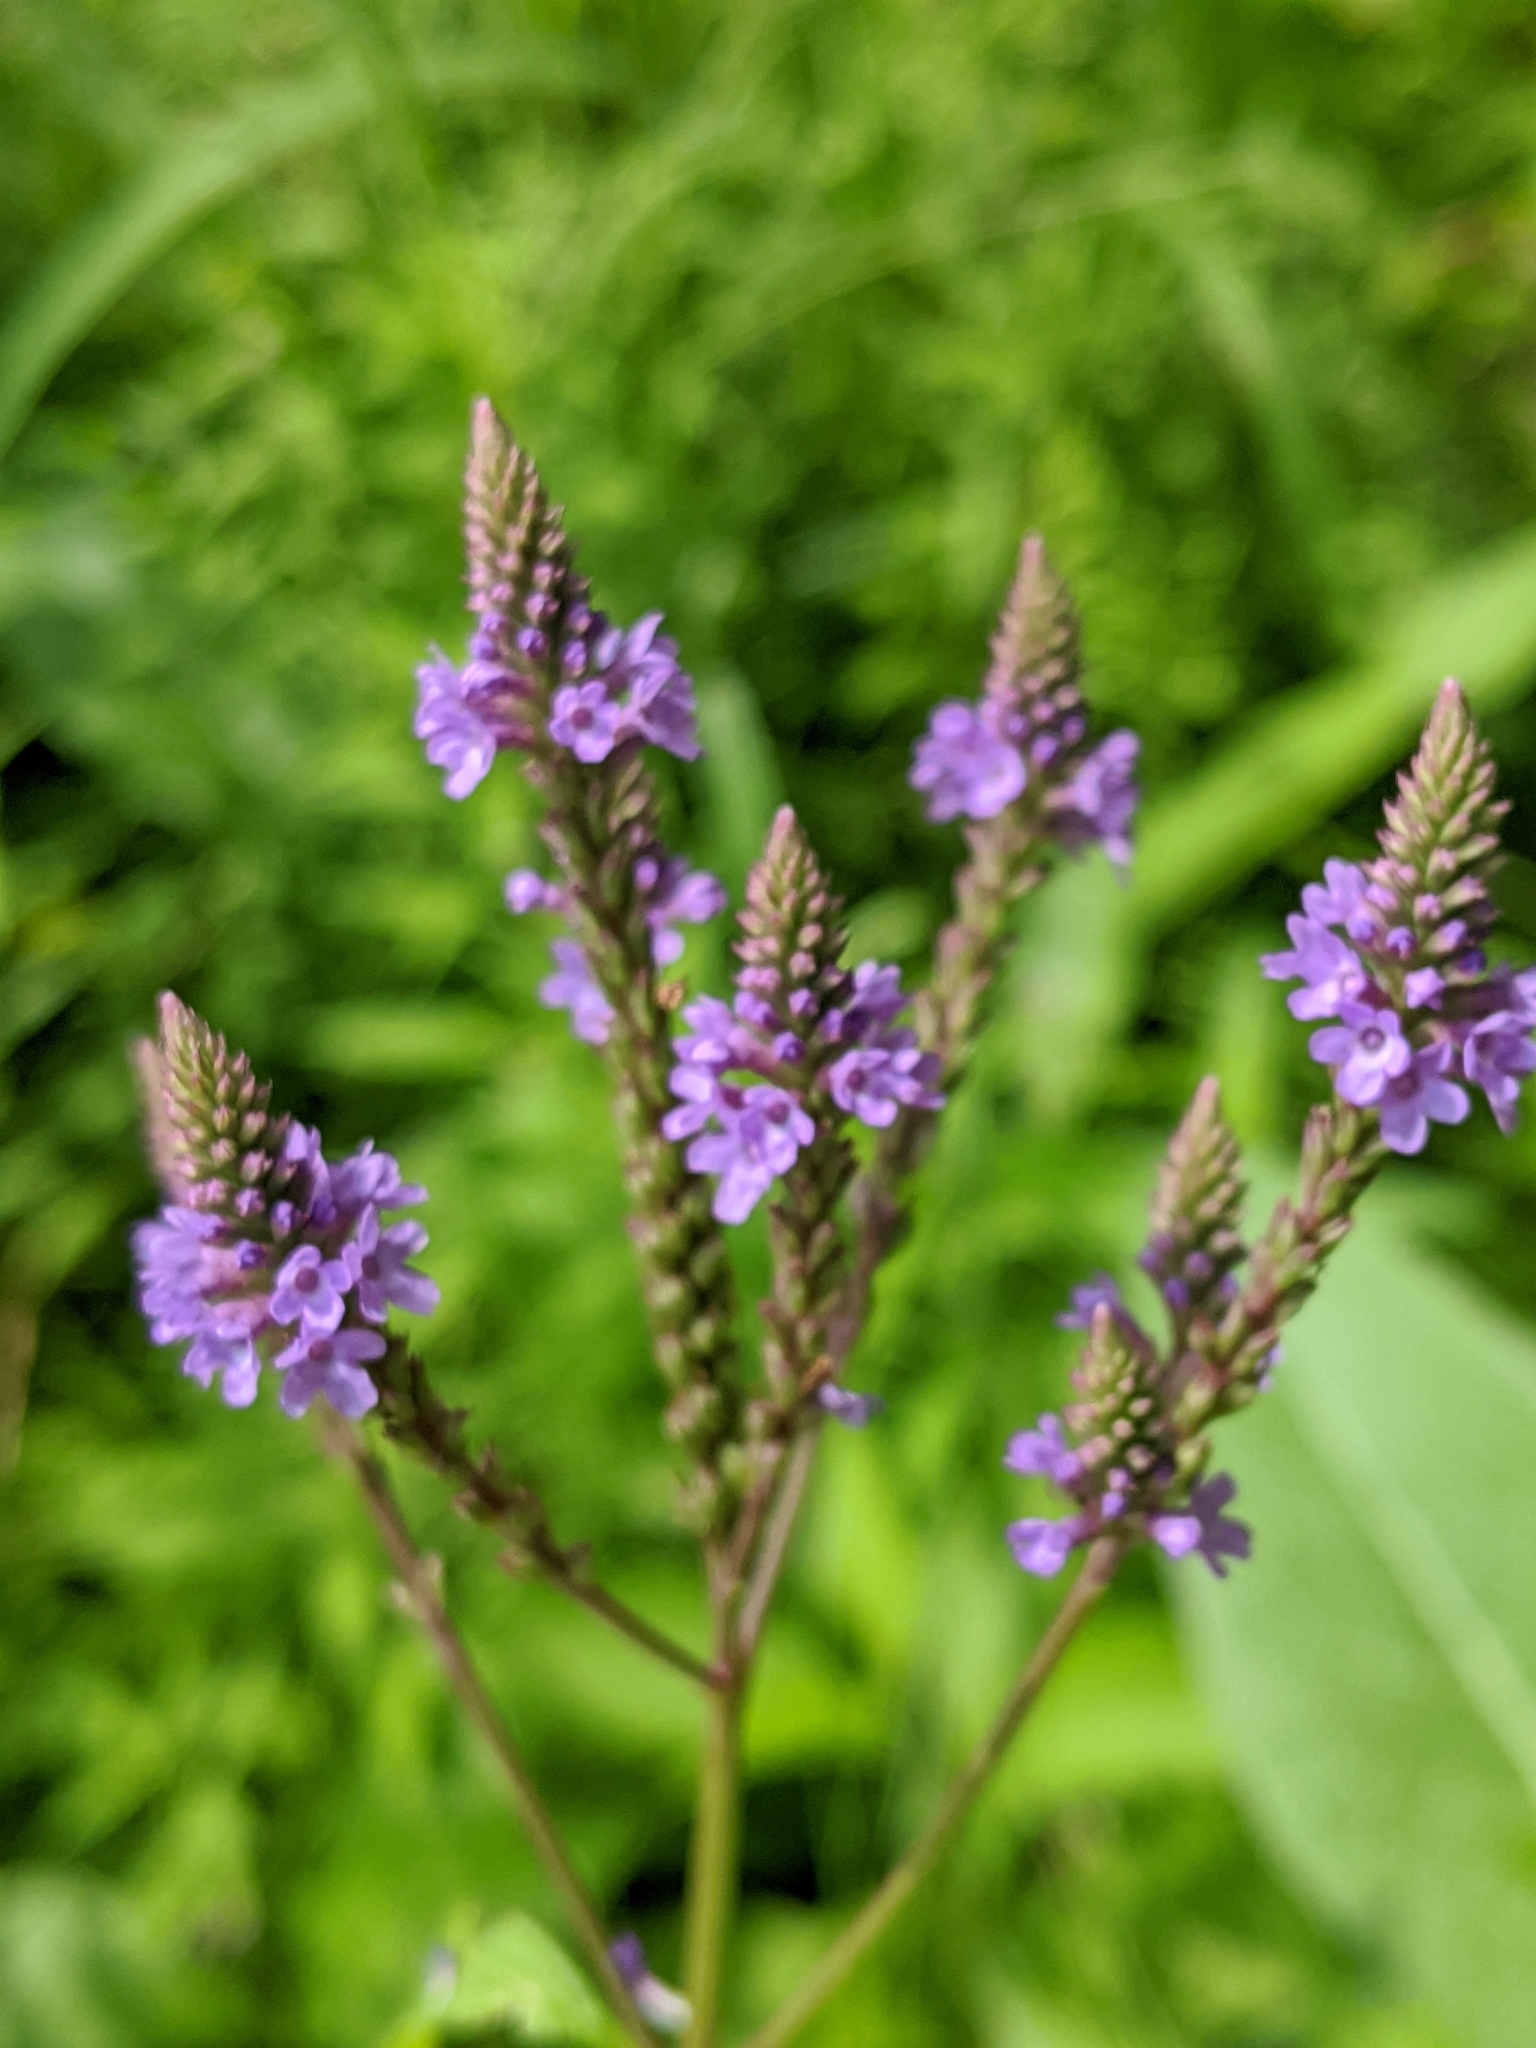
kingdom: Plantae
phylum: Tracheophyta
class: Magnoliopsida
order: Lamiales
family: Verbenaceae
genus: Verbena
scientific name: Verbena hastata
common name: American blue vervain
